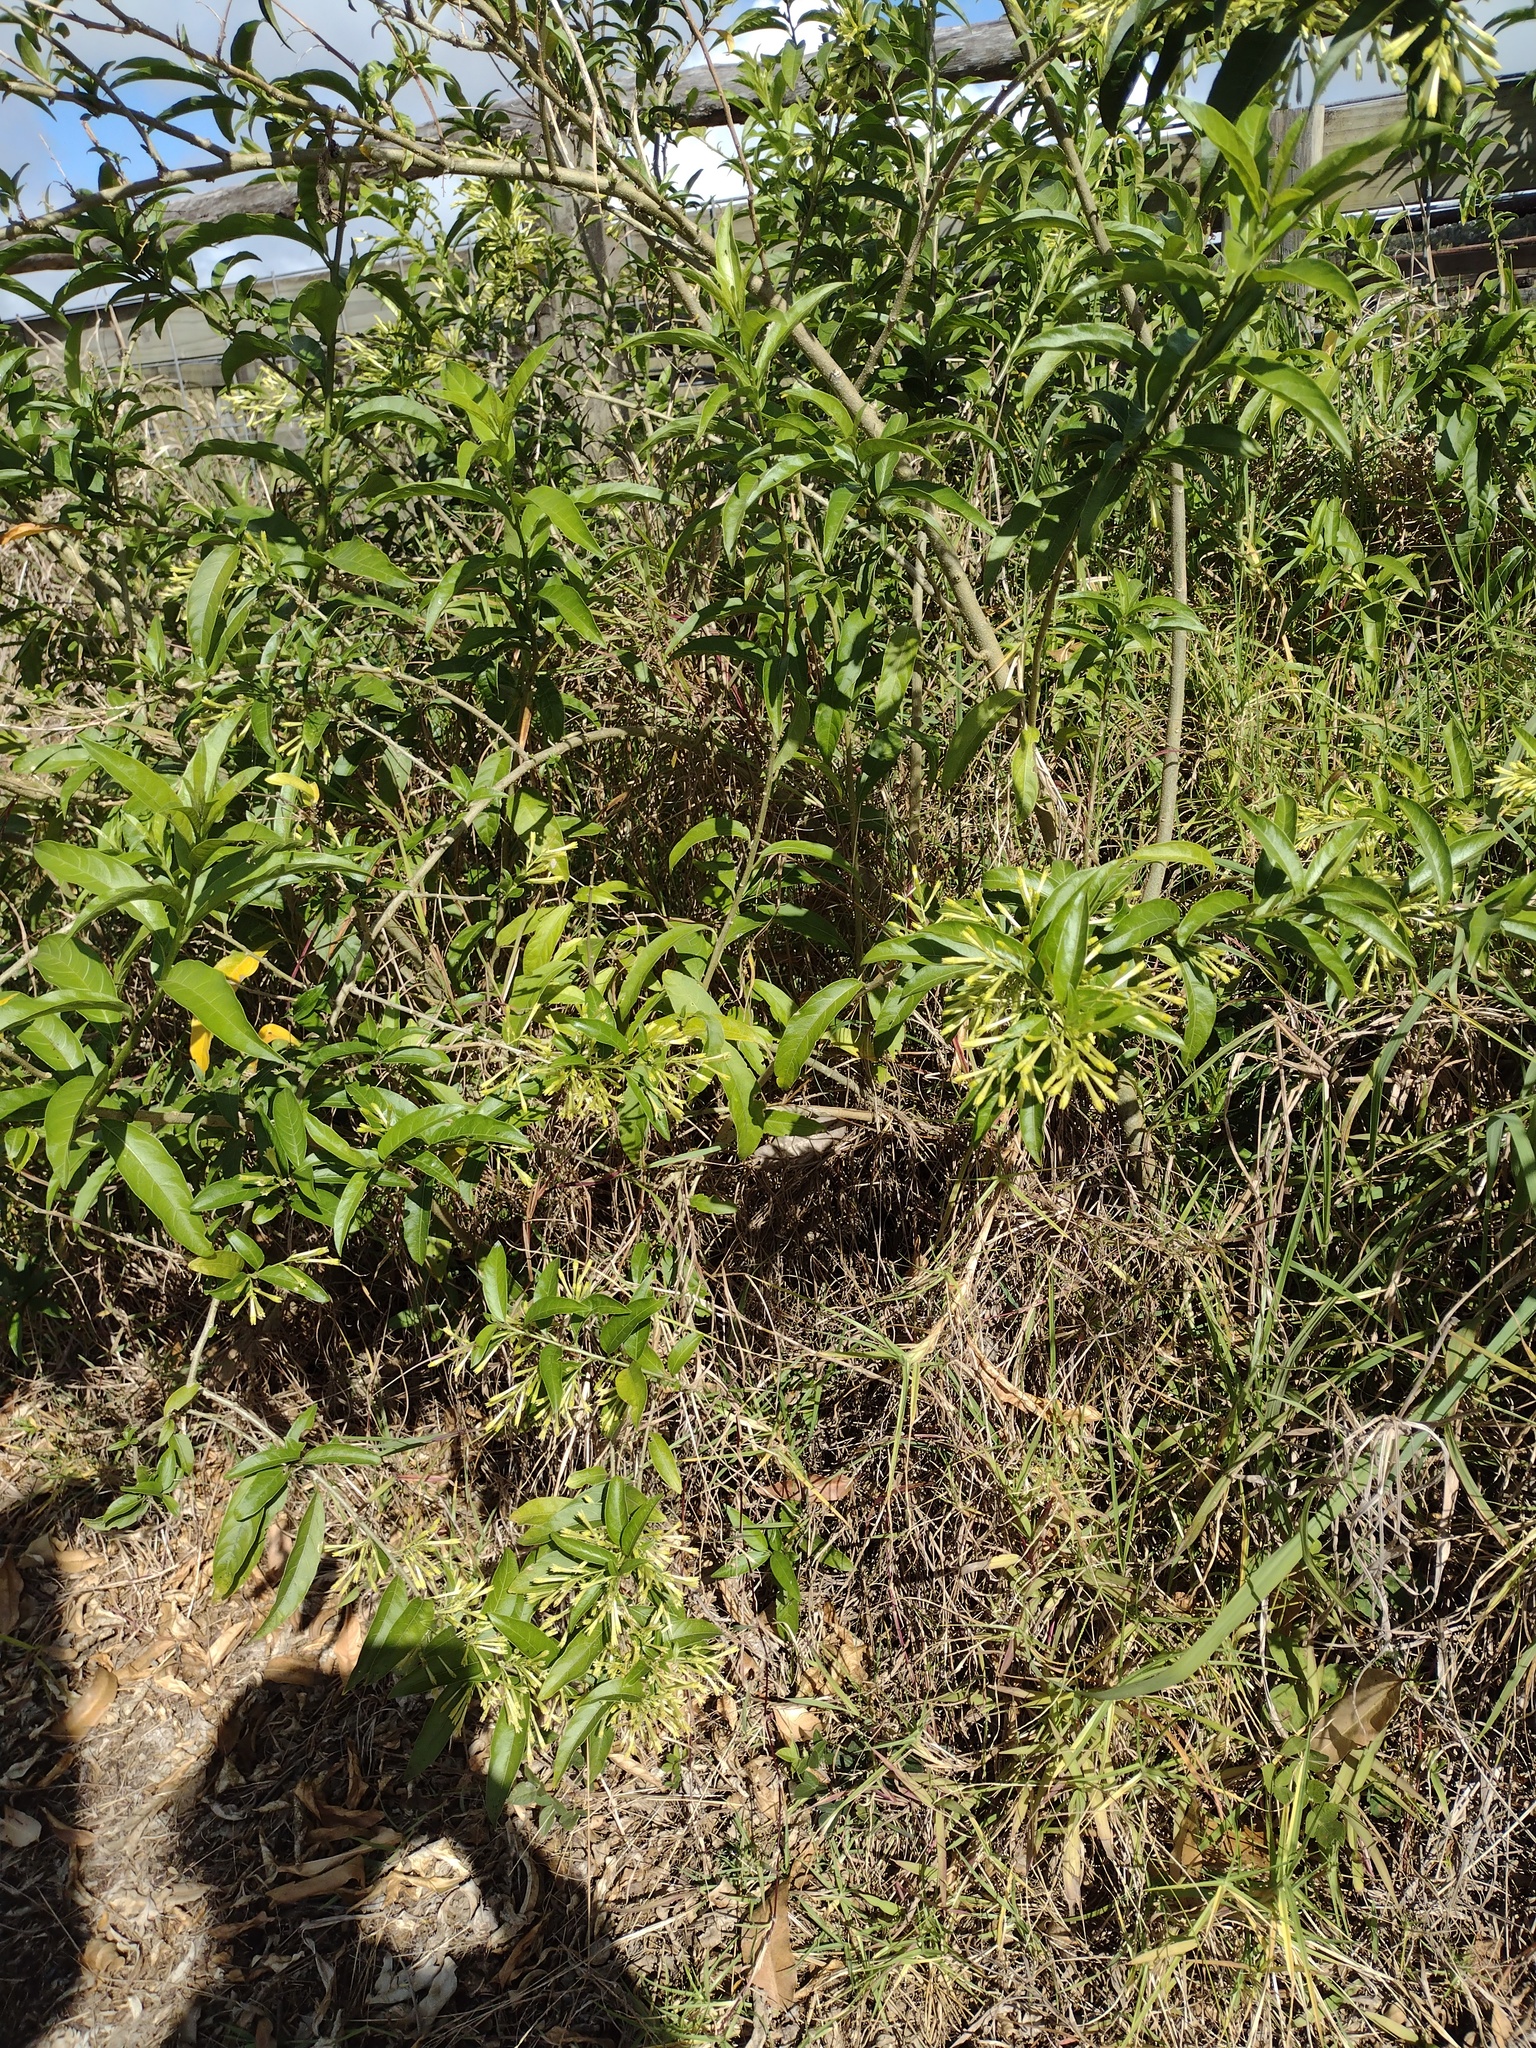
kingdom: Plantae
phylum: Tracheophyta
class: Magnoliopsida
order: Solanales
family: Solanaceae
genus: Cestrum
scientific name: Cestrum nocturnum
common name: Night jessamine
